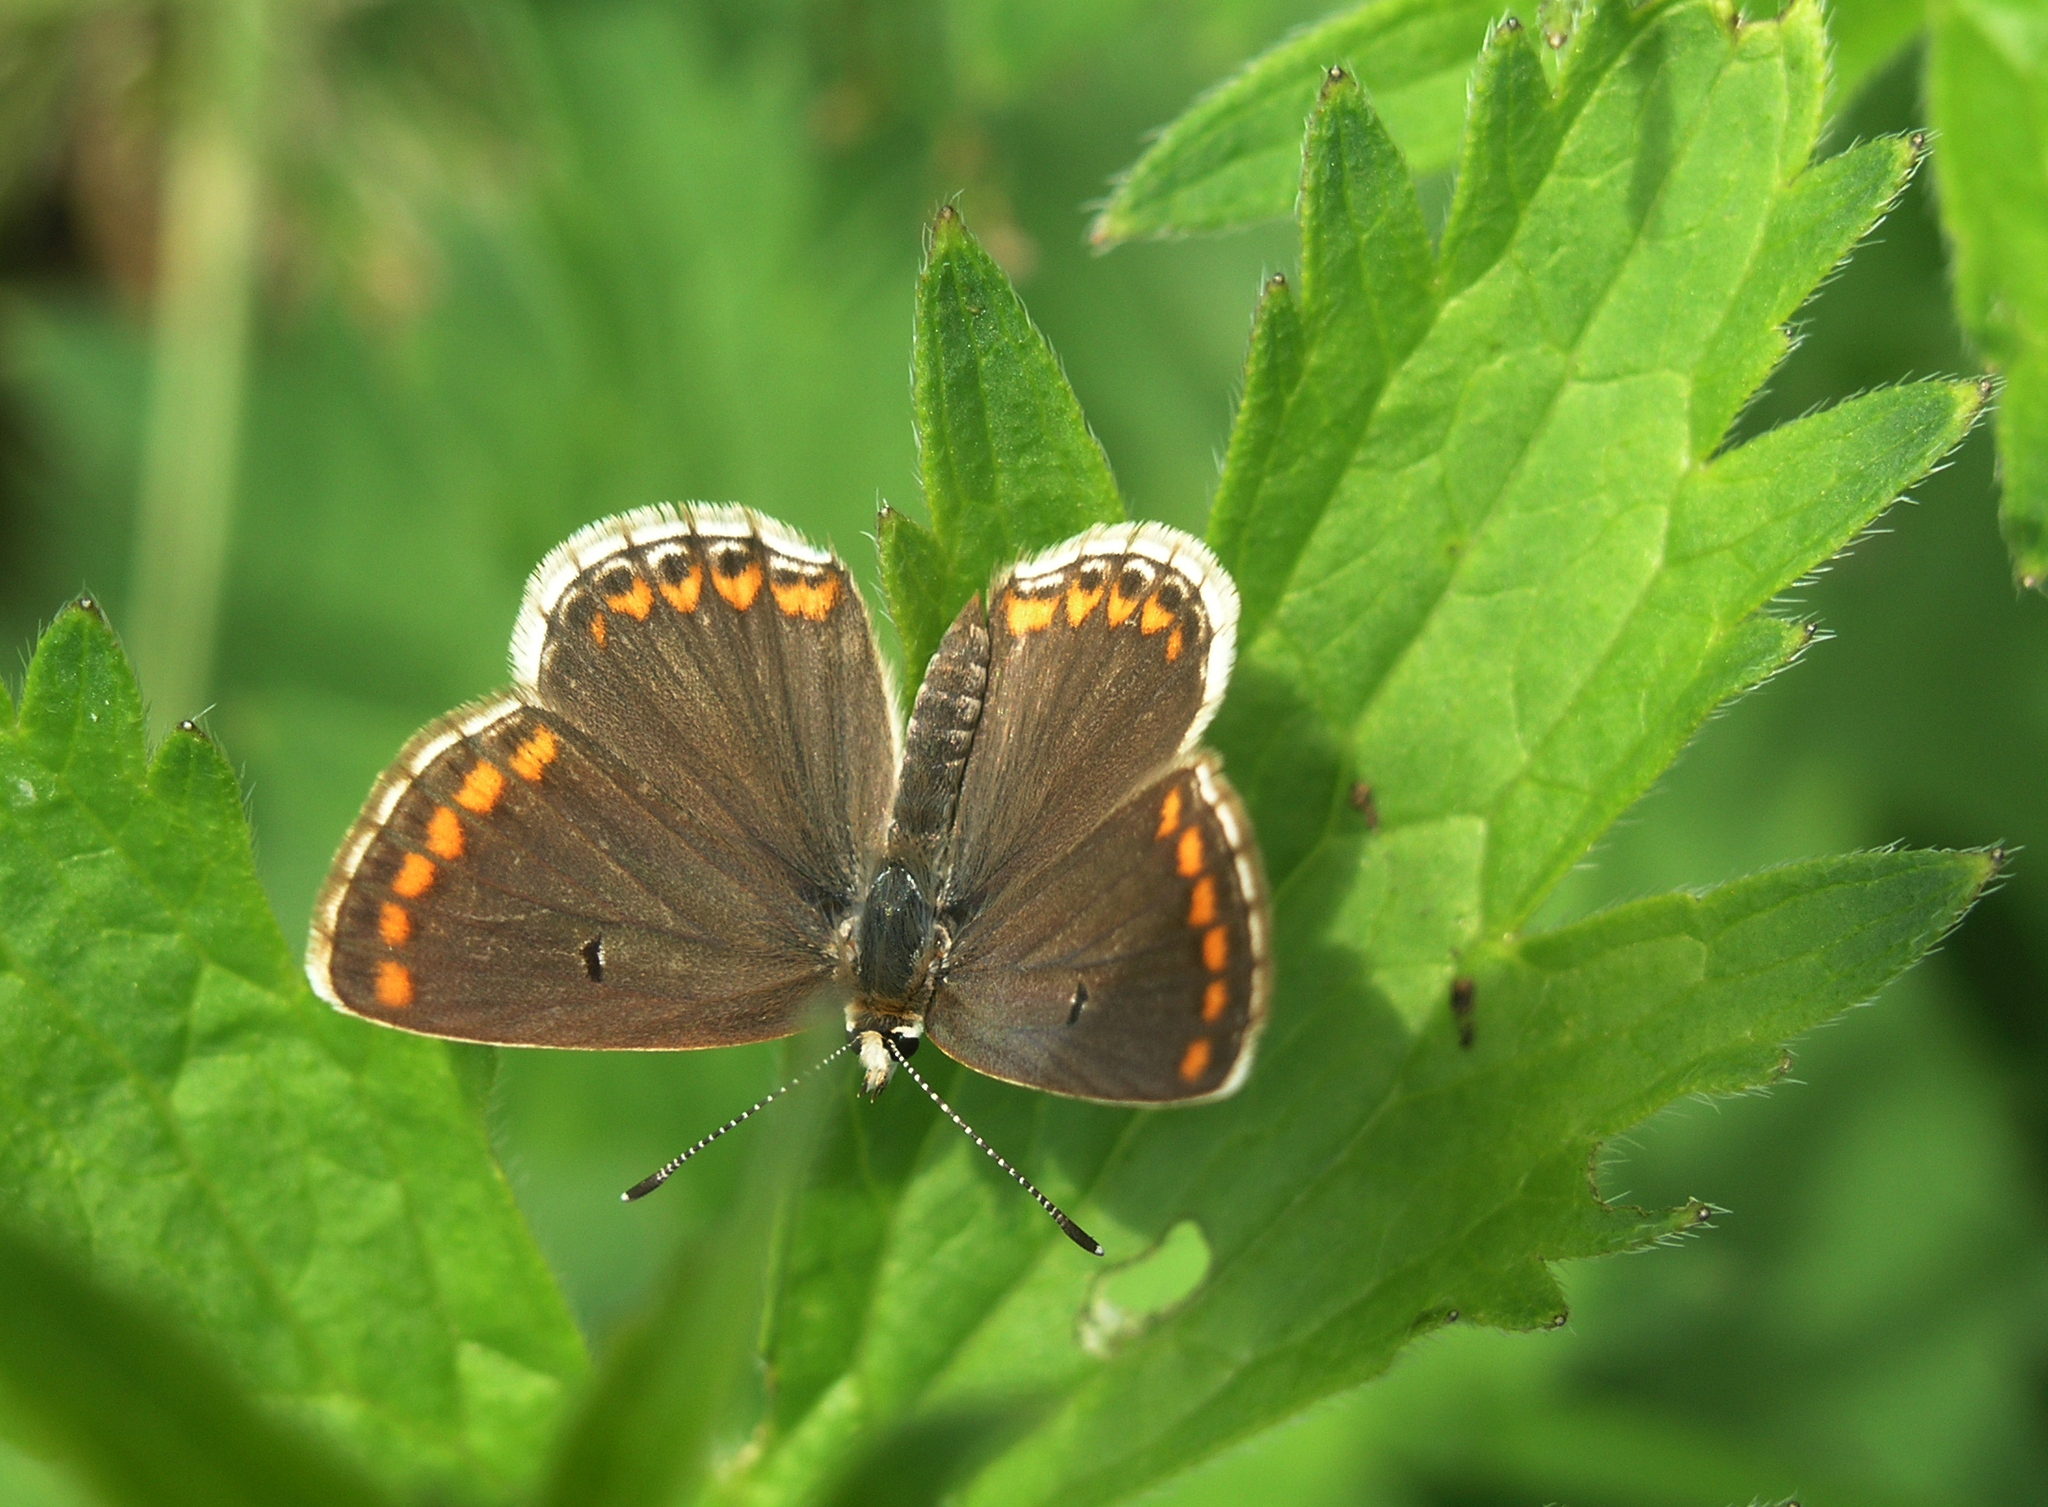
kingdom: Animalia
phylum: Arthropoda
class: Insecta
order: Lepidoptera
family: Lycaenidae
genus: Aricia
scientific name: Aricia agestis
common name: Brown argus
